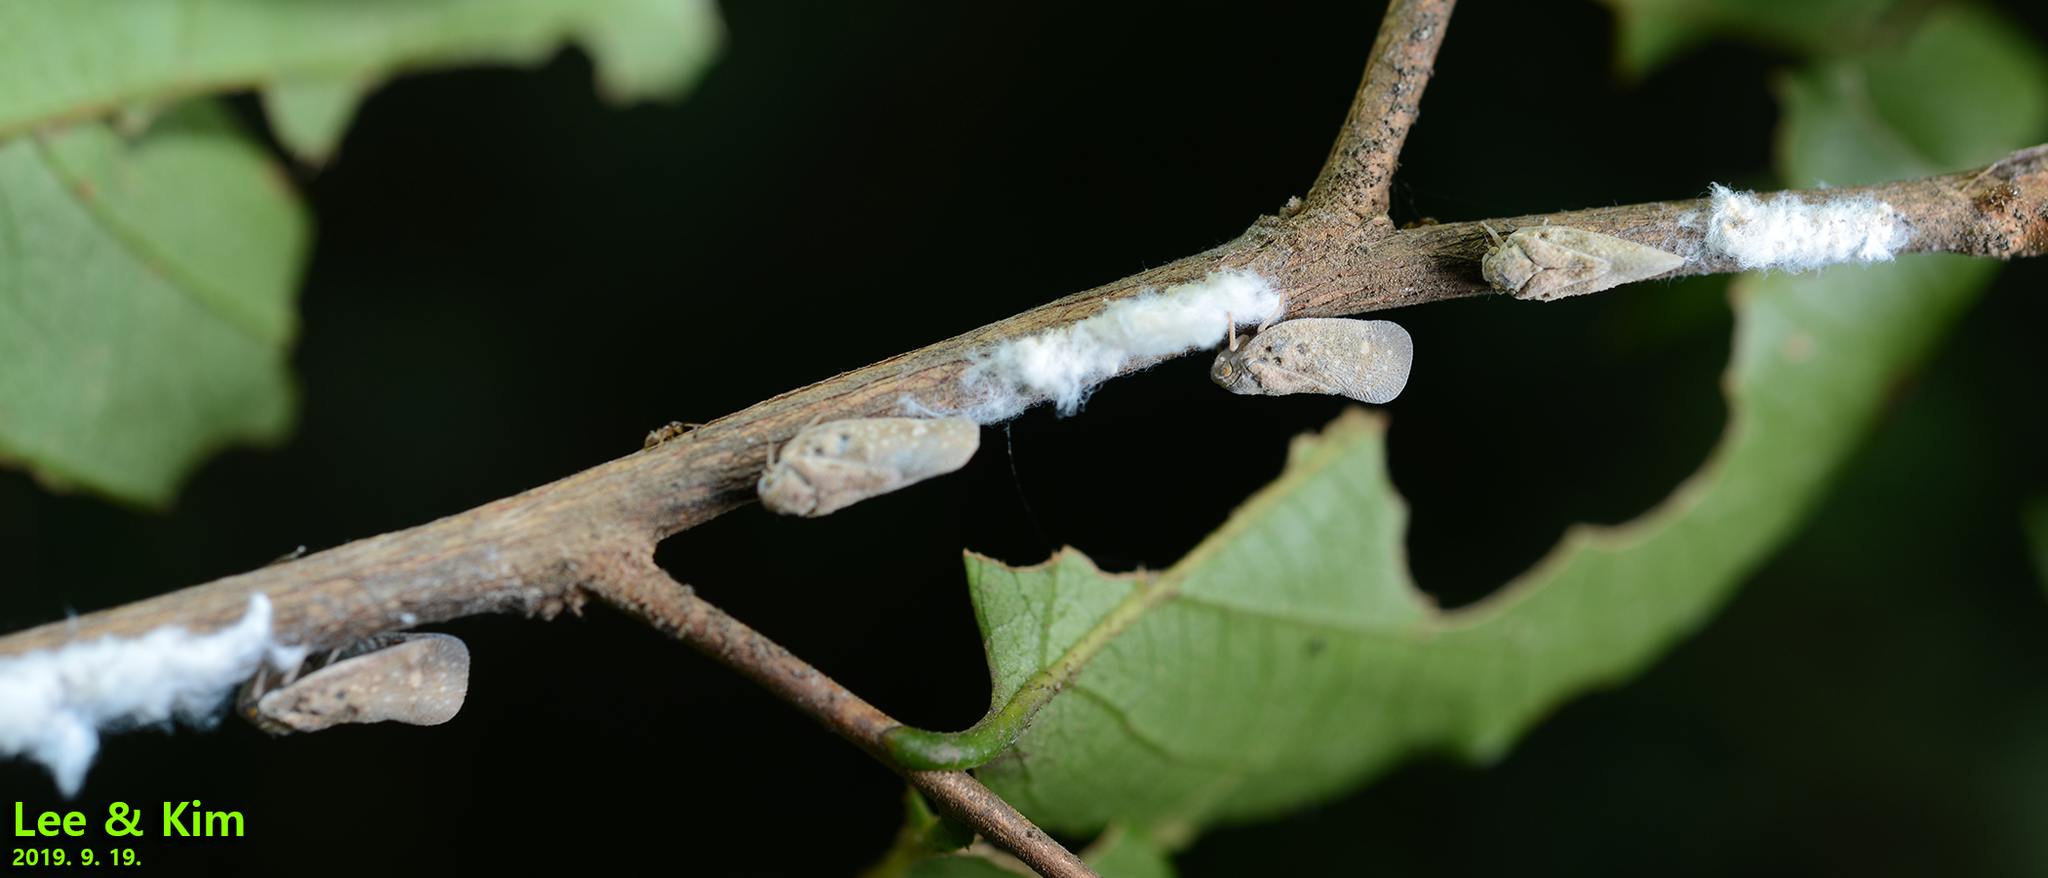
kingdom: Animalia
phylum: Arthropoda
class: Insecta
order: Hemiptera
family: Flatidae
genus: Metcalfa
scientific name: Metcalfa pruinosa
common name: Citrus flatid planthopper
